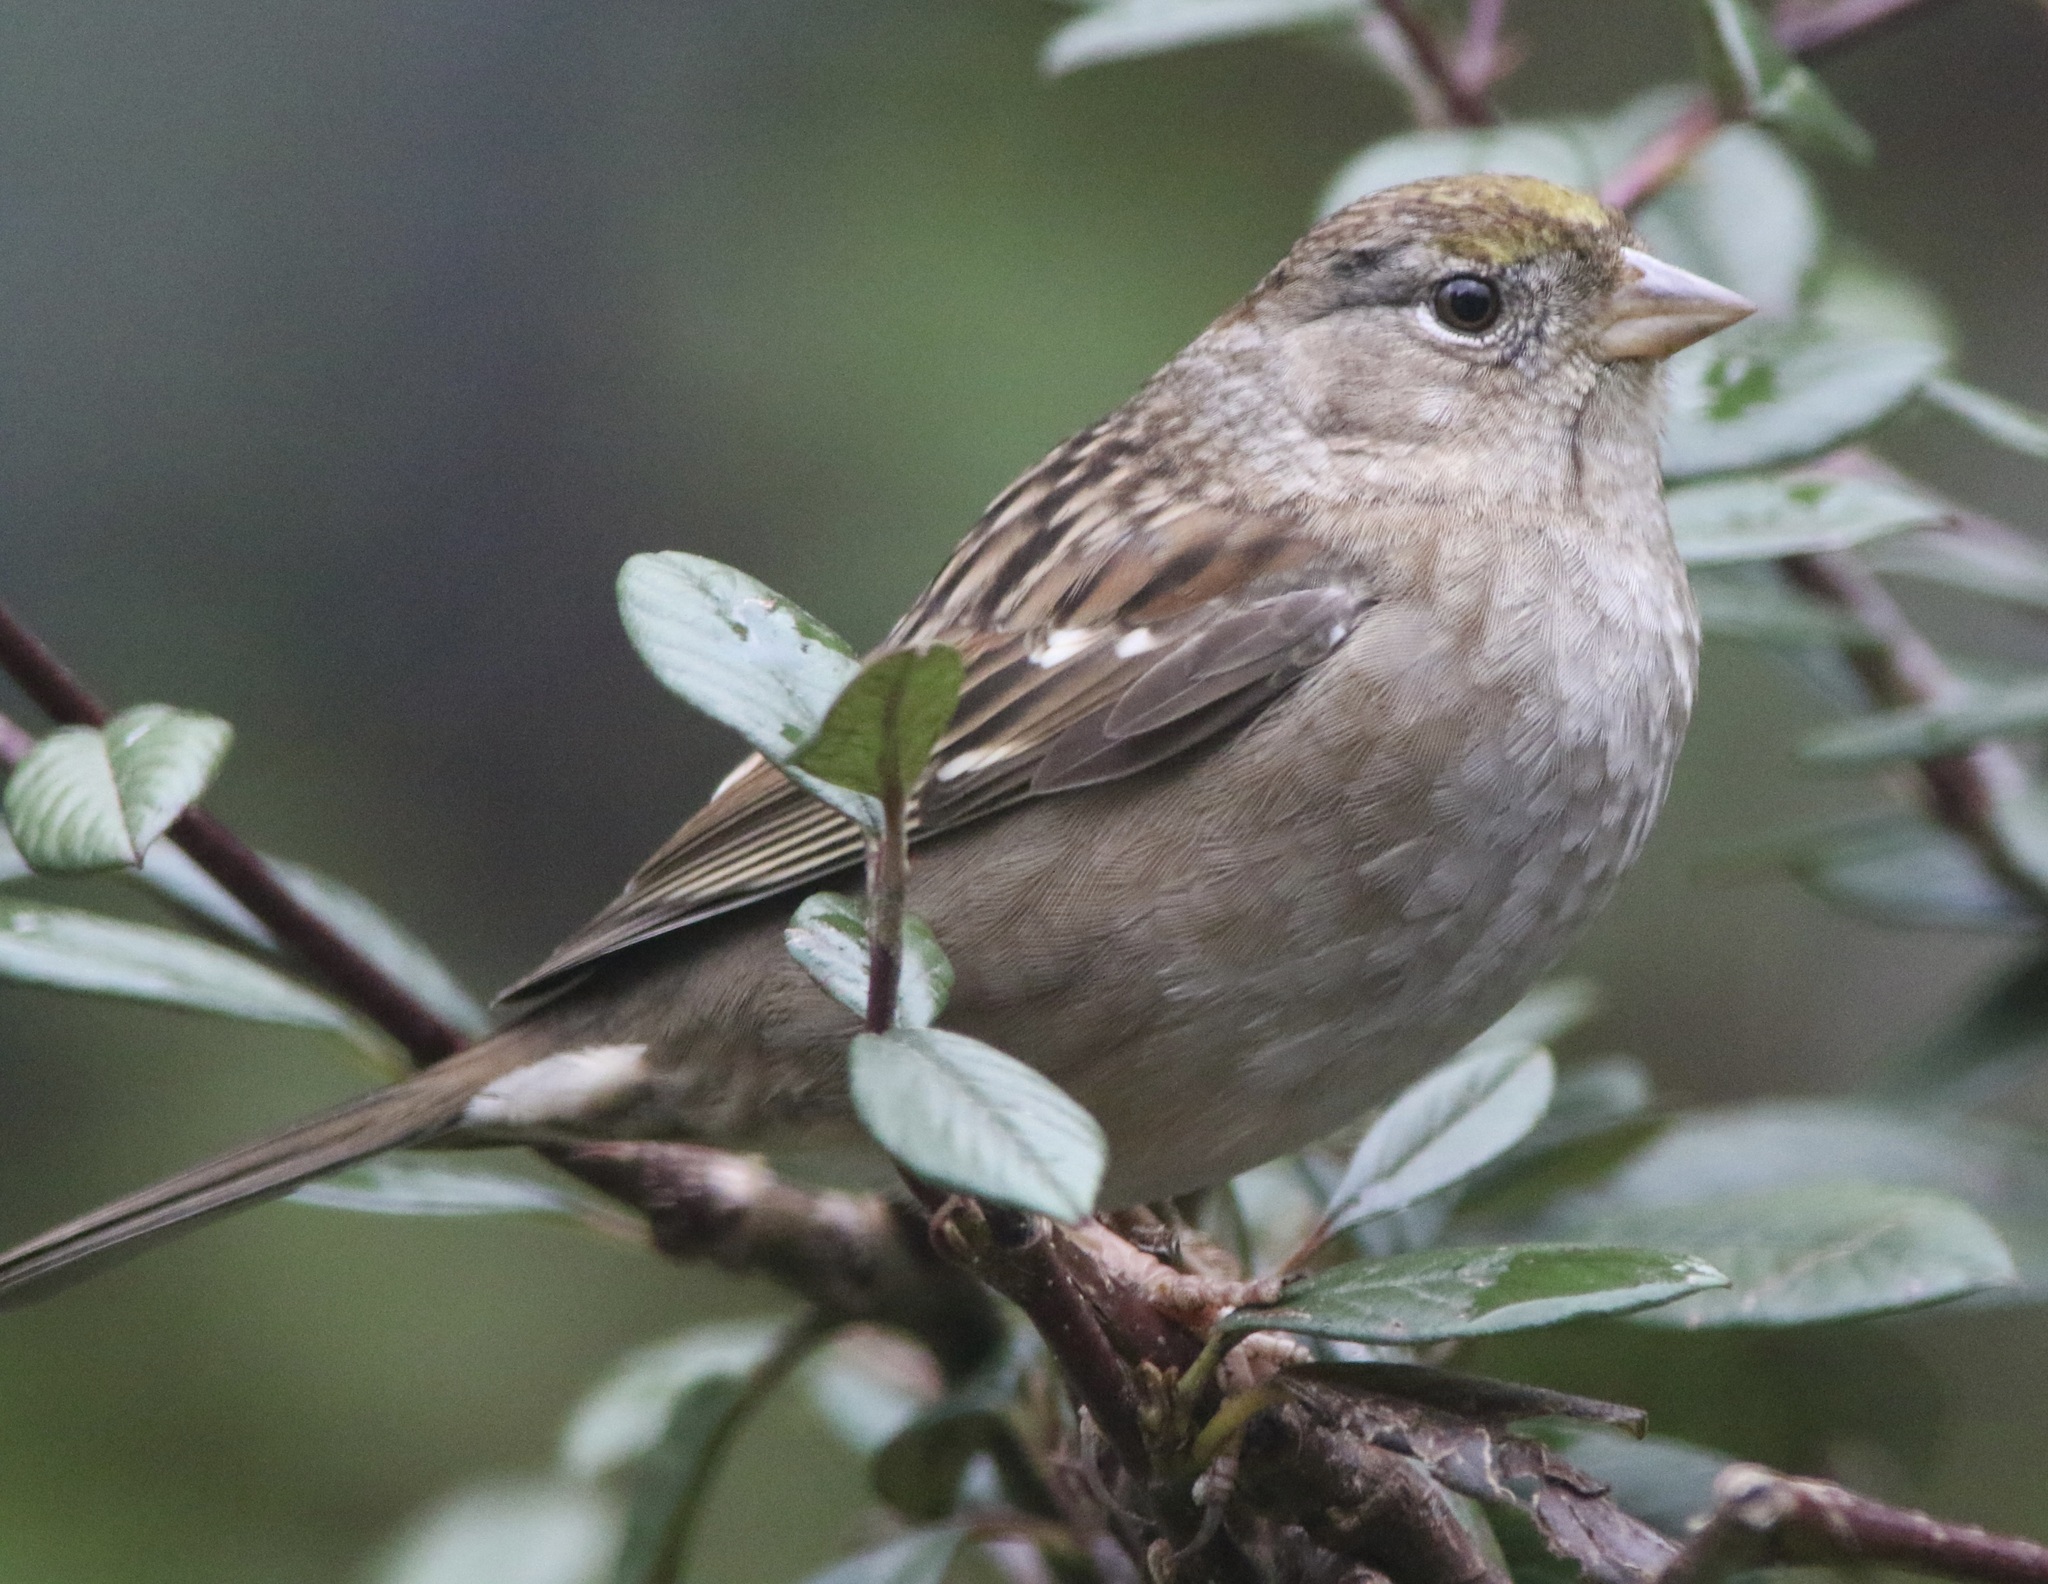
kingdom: Animalia
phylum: Chordata
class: Aves
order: Passeriformes
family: Passerellidae
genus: Zonotrichia
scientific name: Zonotrichia atricapilla
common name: Golden-crowned sparrow
